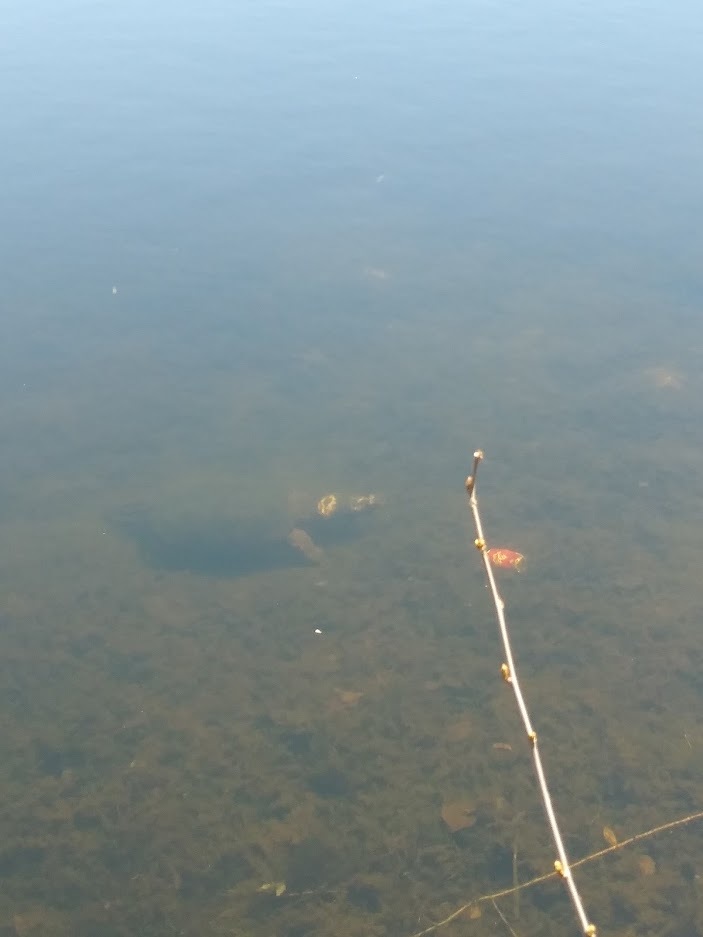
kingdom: Animalia
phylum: Chordata
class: Testudines
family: Chelydridae
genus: Chelydra
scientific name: Chelydra serpentina
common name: Common snapping turtle
